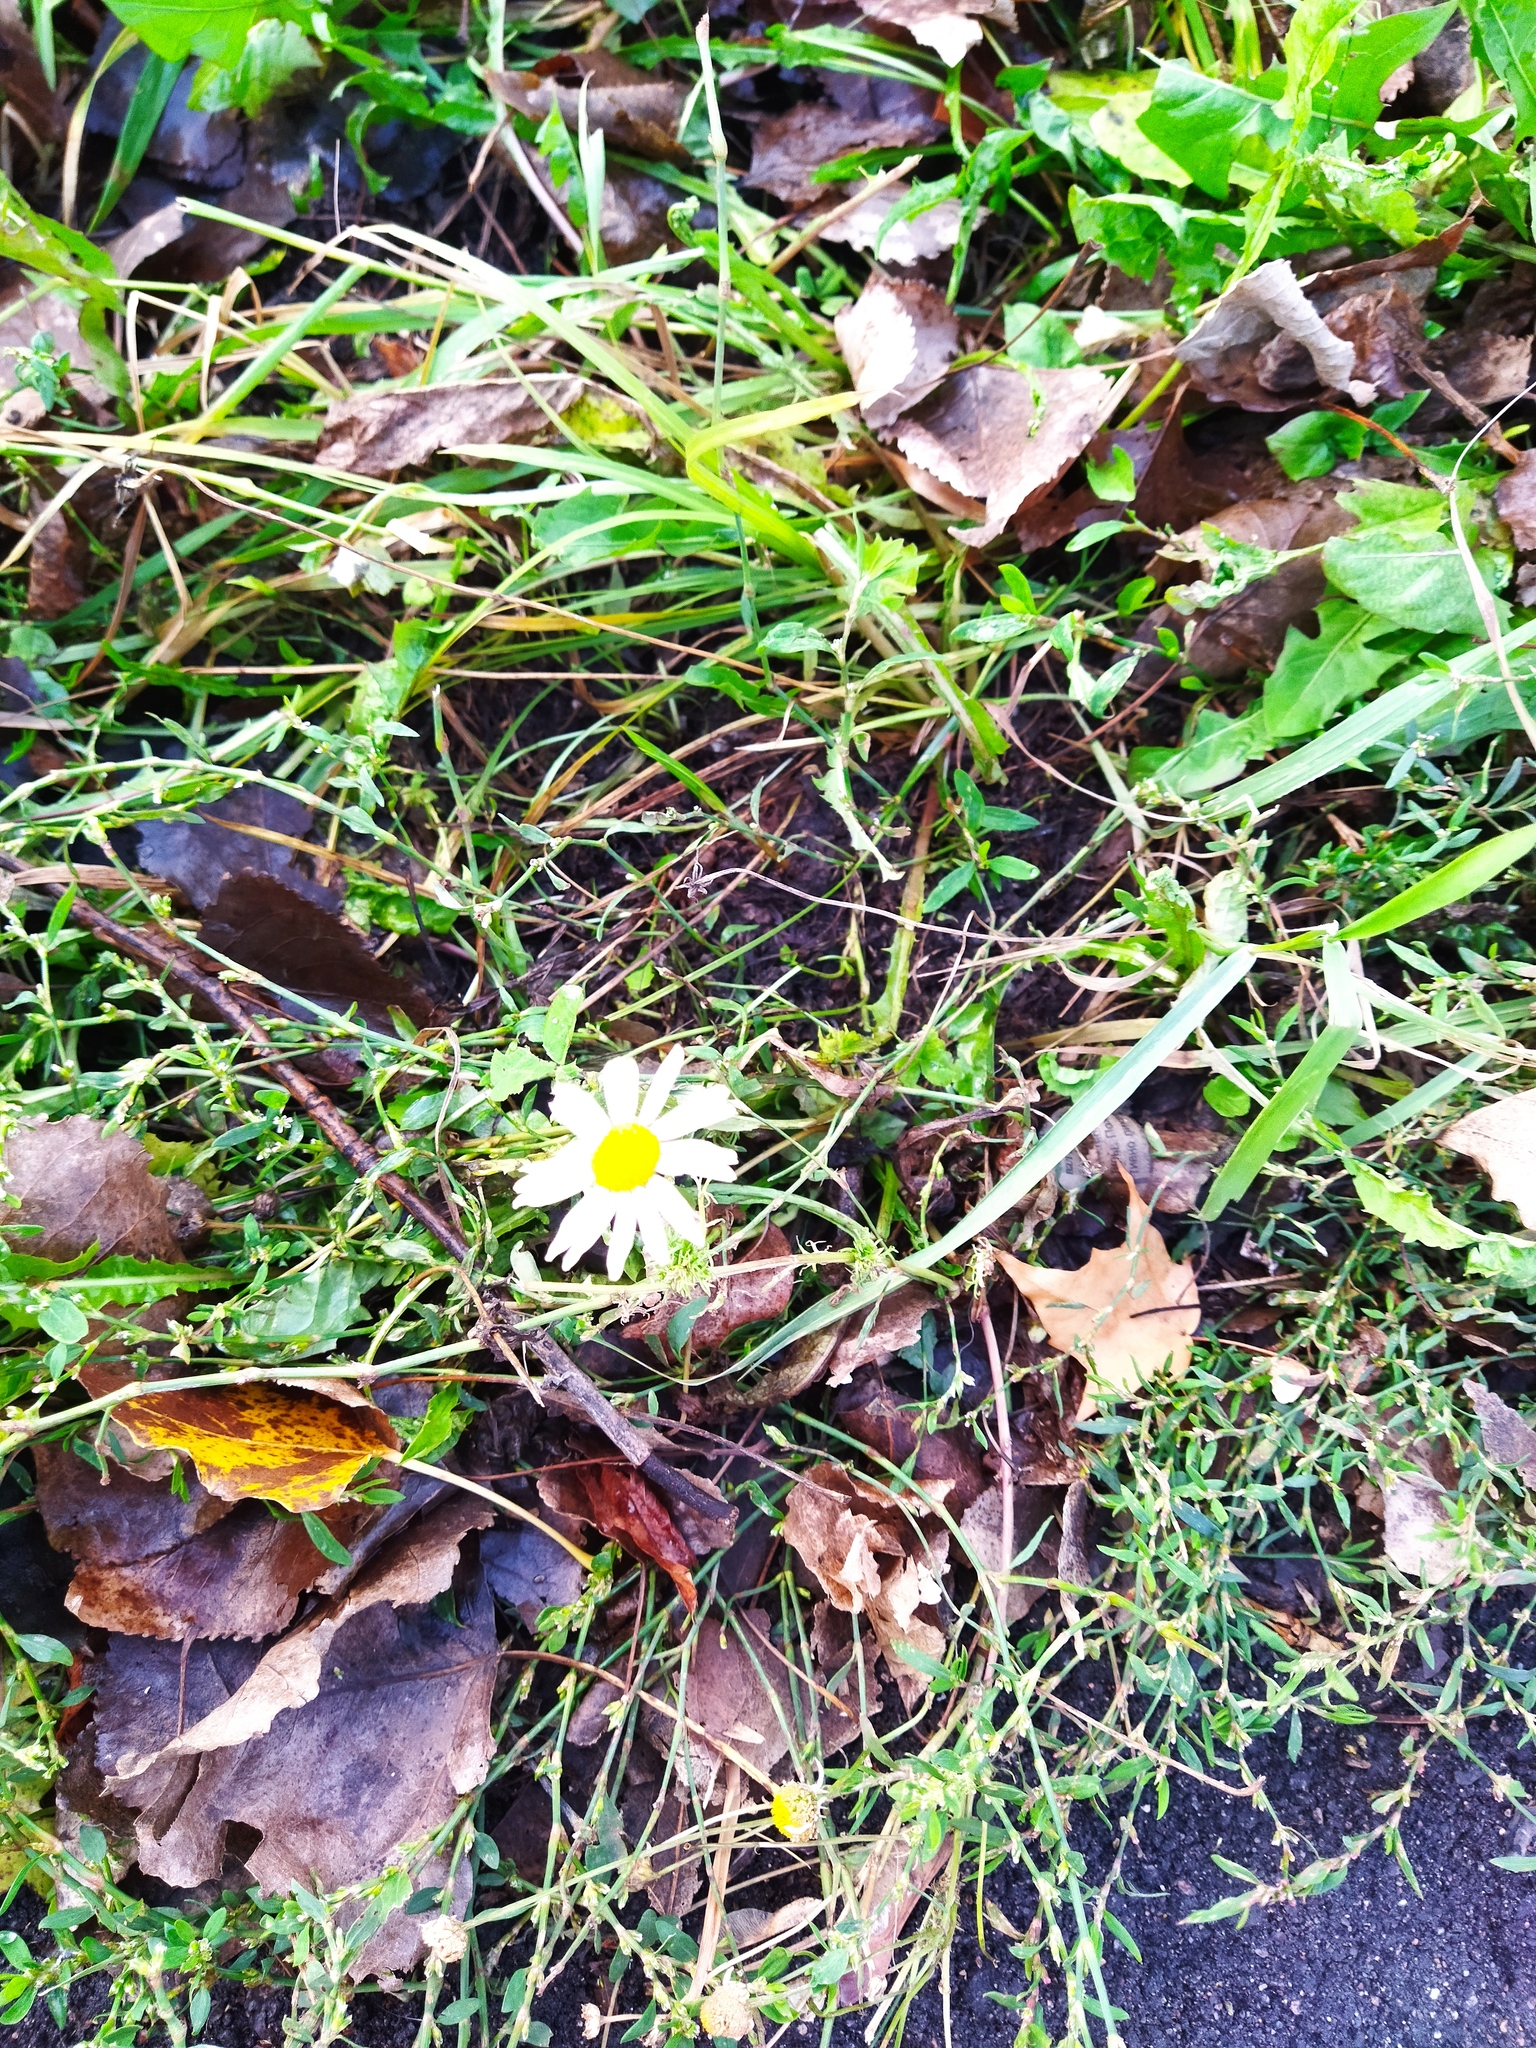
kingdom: Plantae
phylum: Tracheophyta
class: Magnoliopsida
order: Asterales
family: Asteraceae
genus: Tripleurospermum
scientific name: Tripleurospermum inodorum
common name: Scentless mayweed
